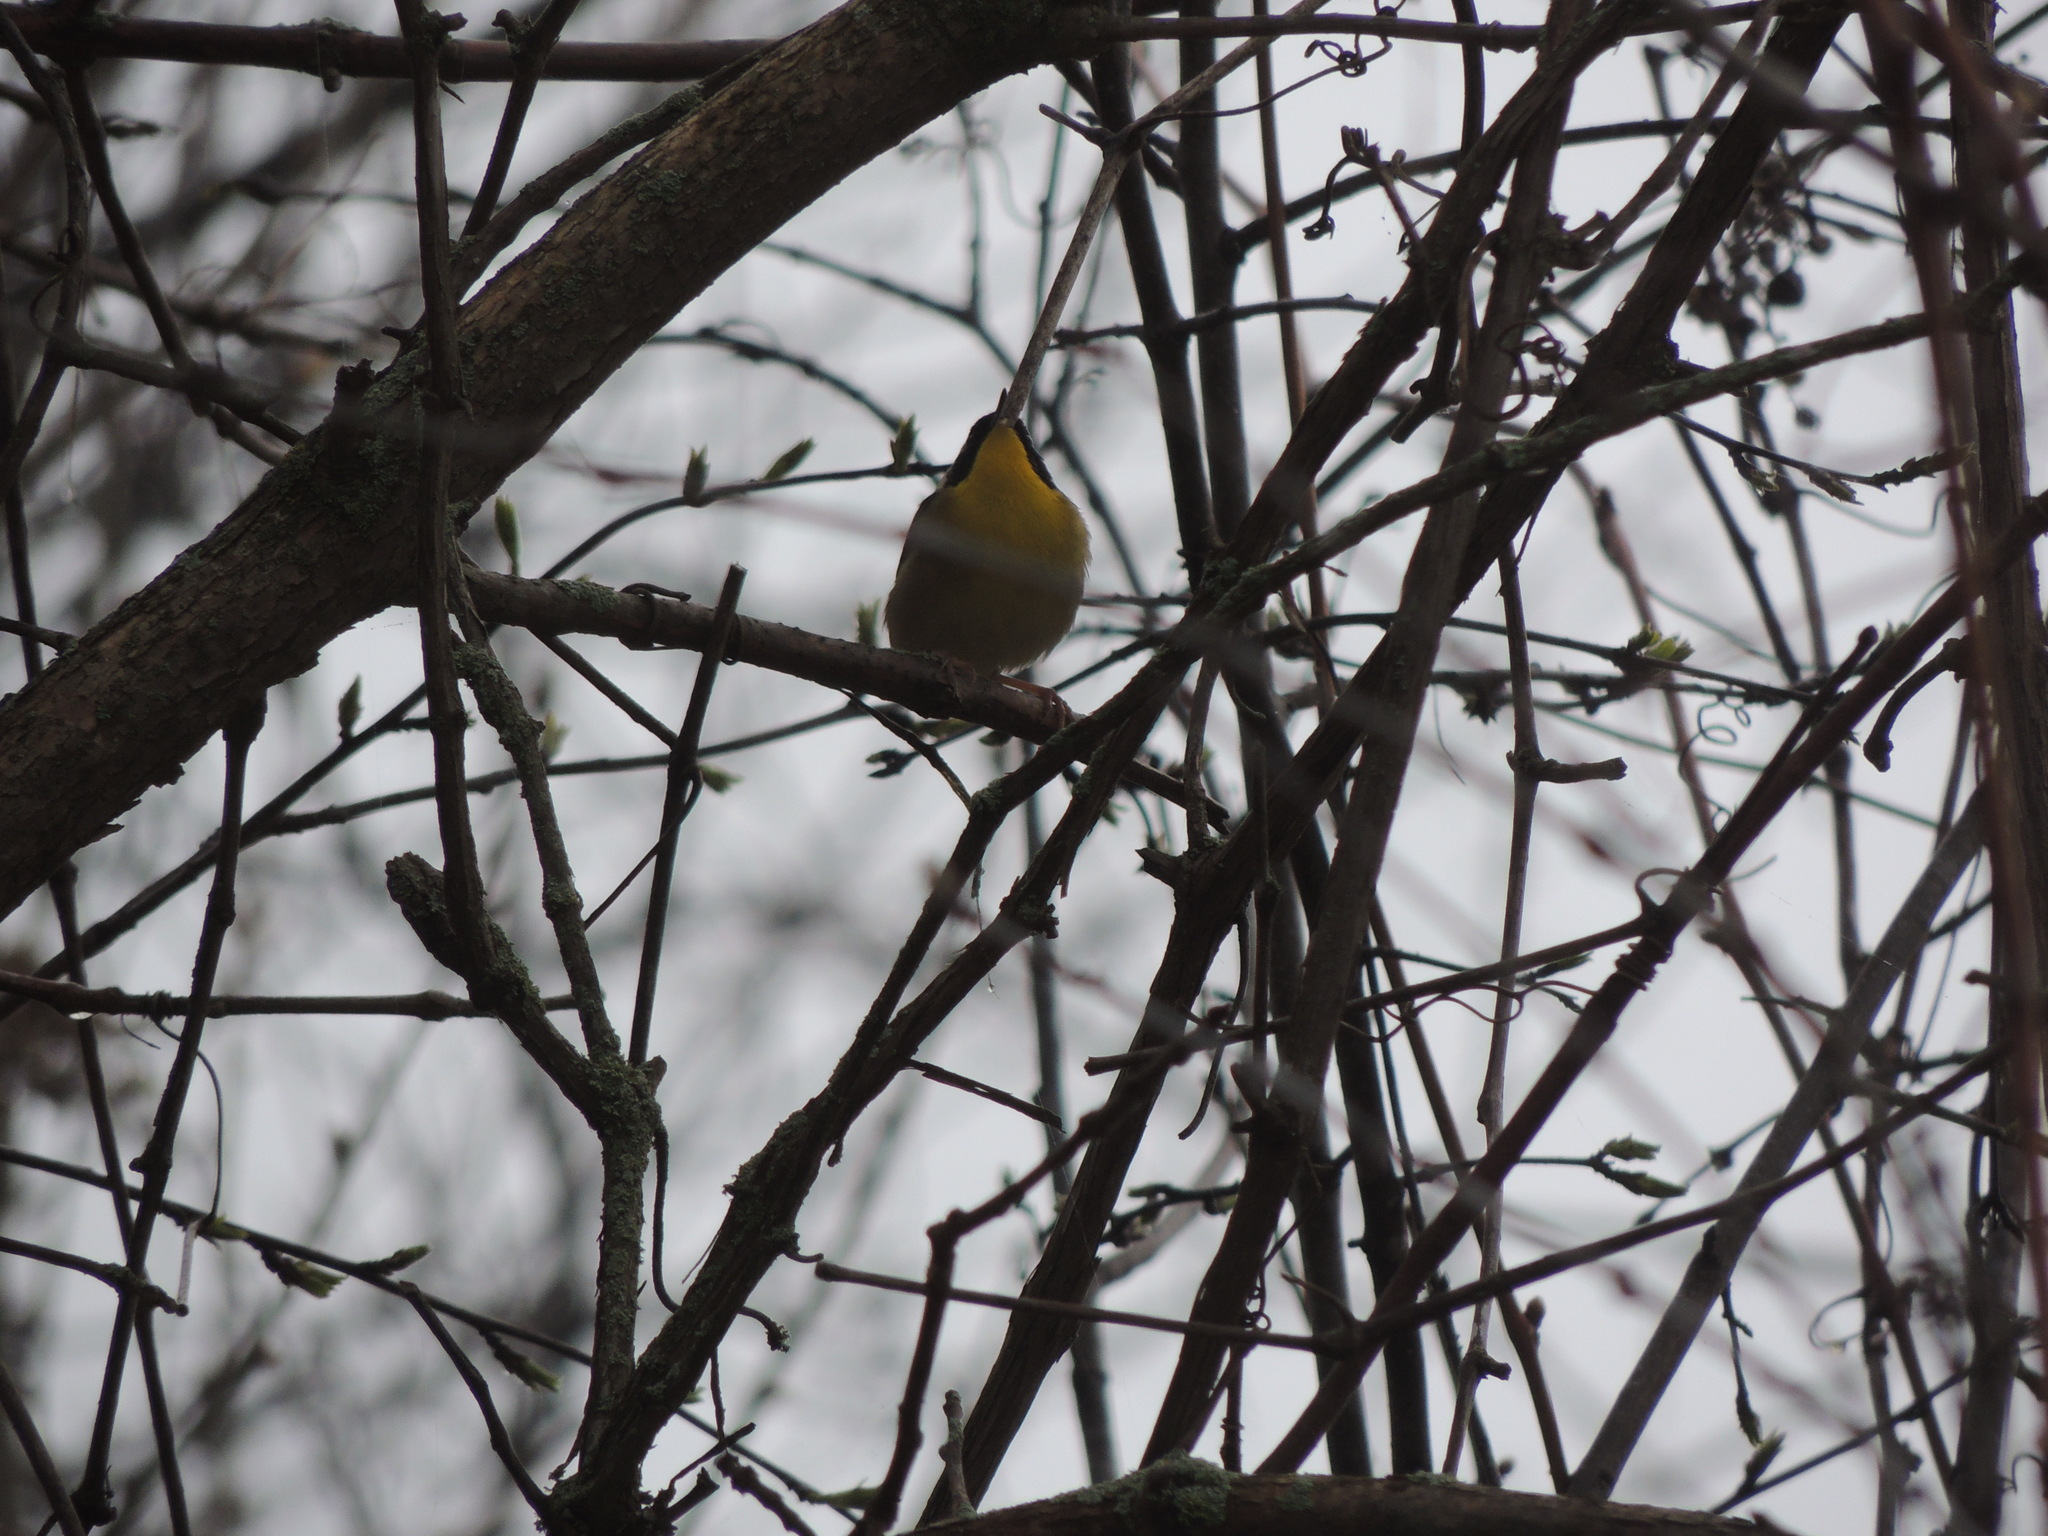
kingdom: Animalia
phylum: Chordata
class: Aves
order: Passeriformes
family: Parulidae
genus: Geothlypis
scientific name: Geothlypis trichas
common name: Common yellowthroat
